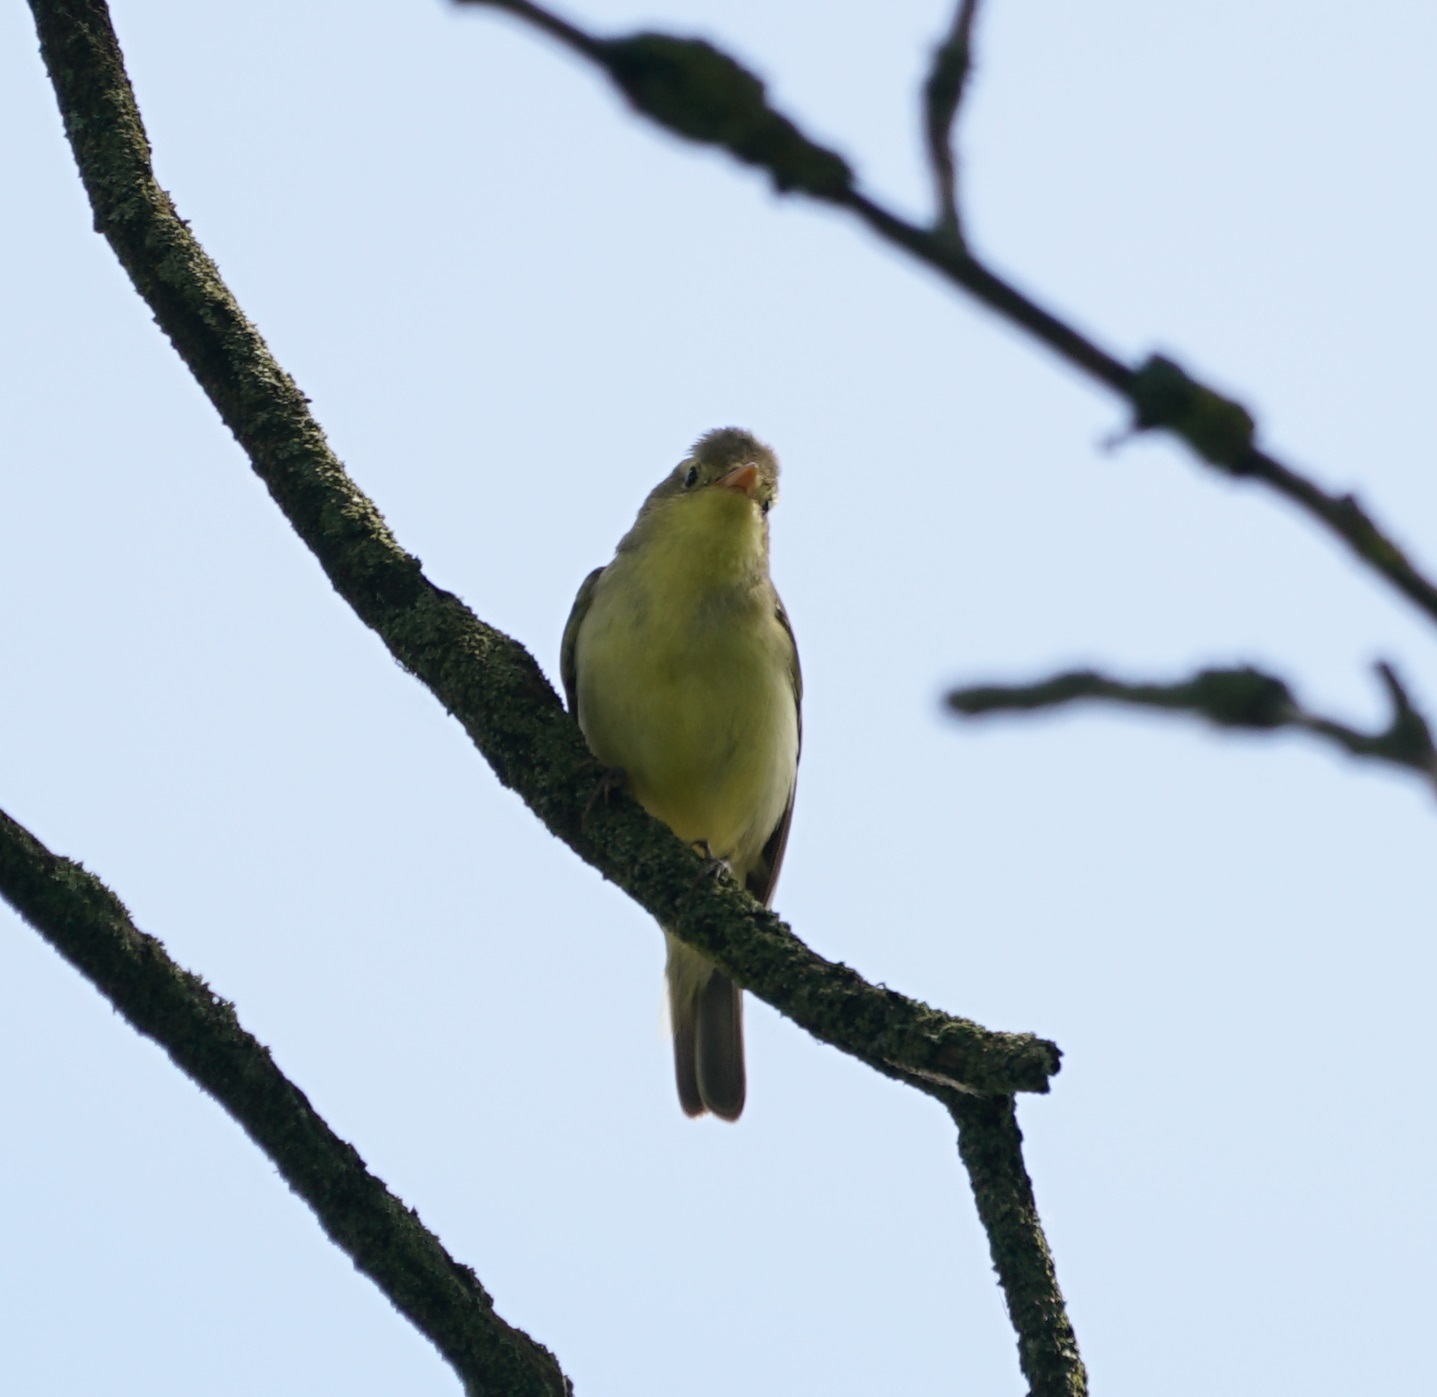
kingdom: Animalia
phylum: Chordata
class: Aves
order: Passeriformes
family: Acrocephalidae
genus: Hippolais
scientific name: Hippolais icterina
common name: Icterine warbler
